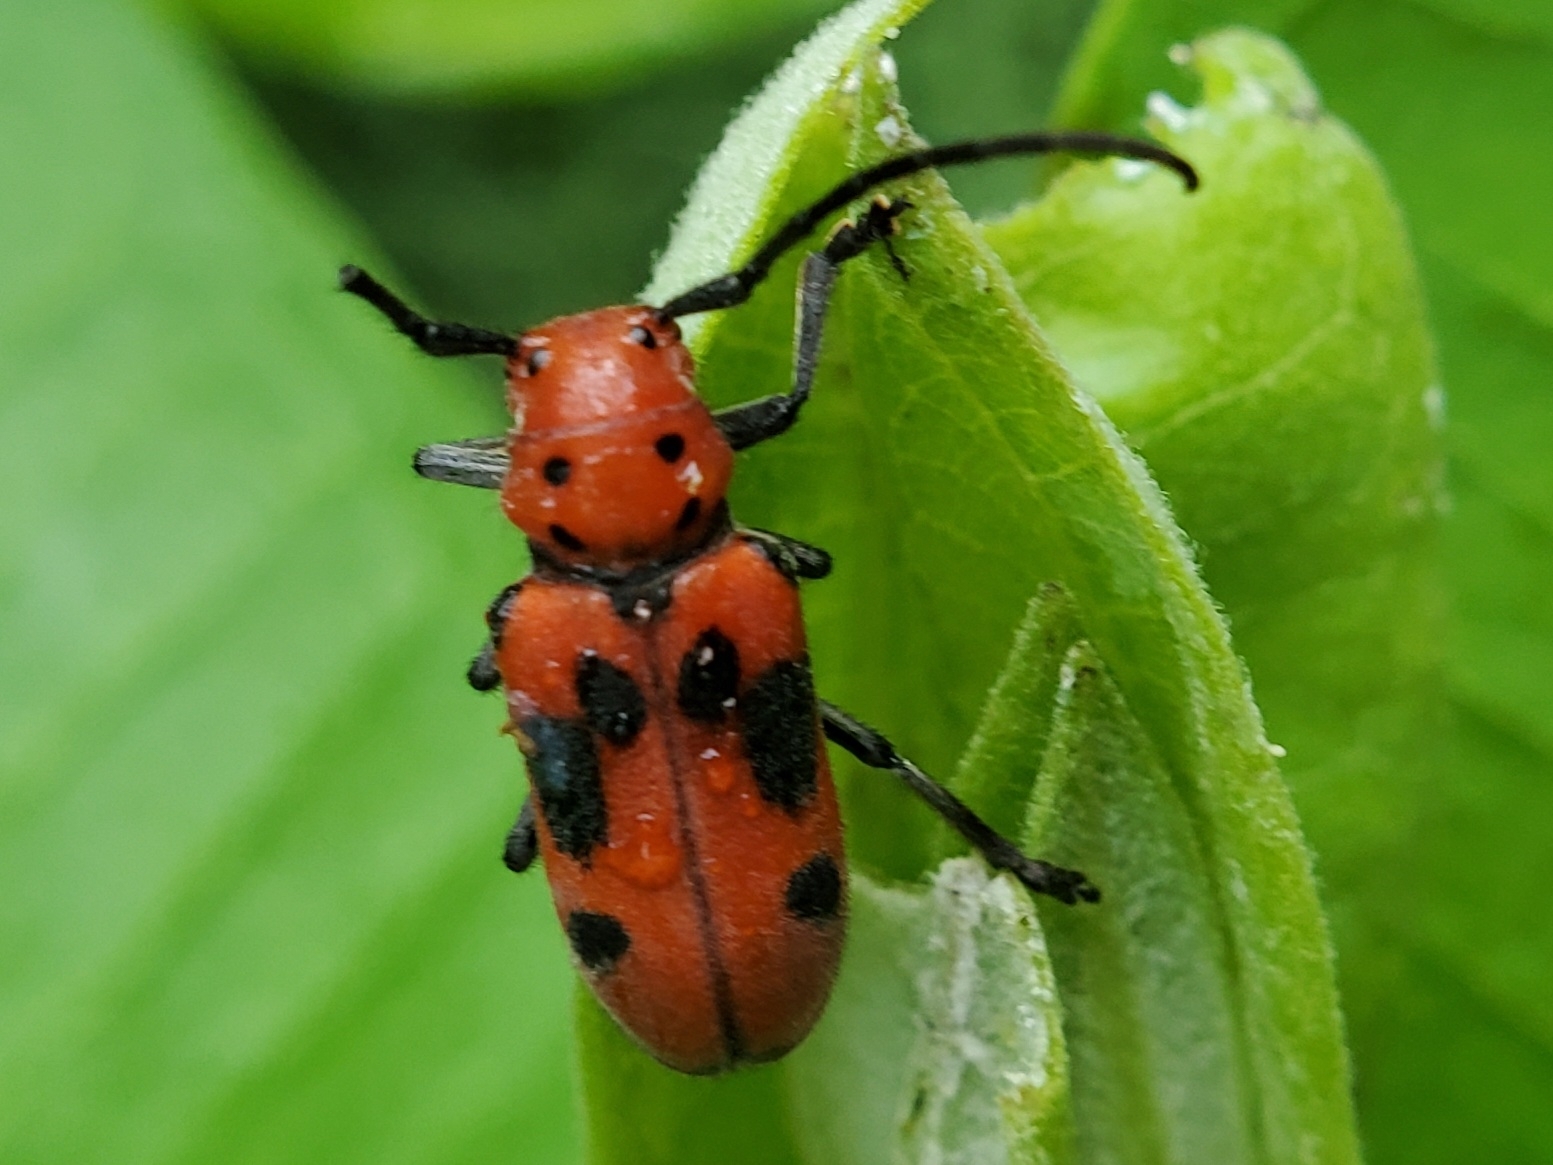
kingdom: Animalia
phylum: Arthropoda
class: Insecta
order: Coleoptera
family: Cerambycidae
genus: Tetraopes
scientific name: Tetraopes tetrophthalmus
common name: Red milkweed beetle
